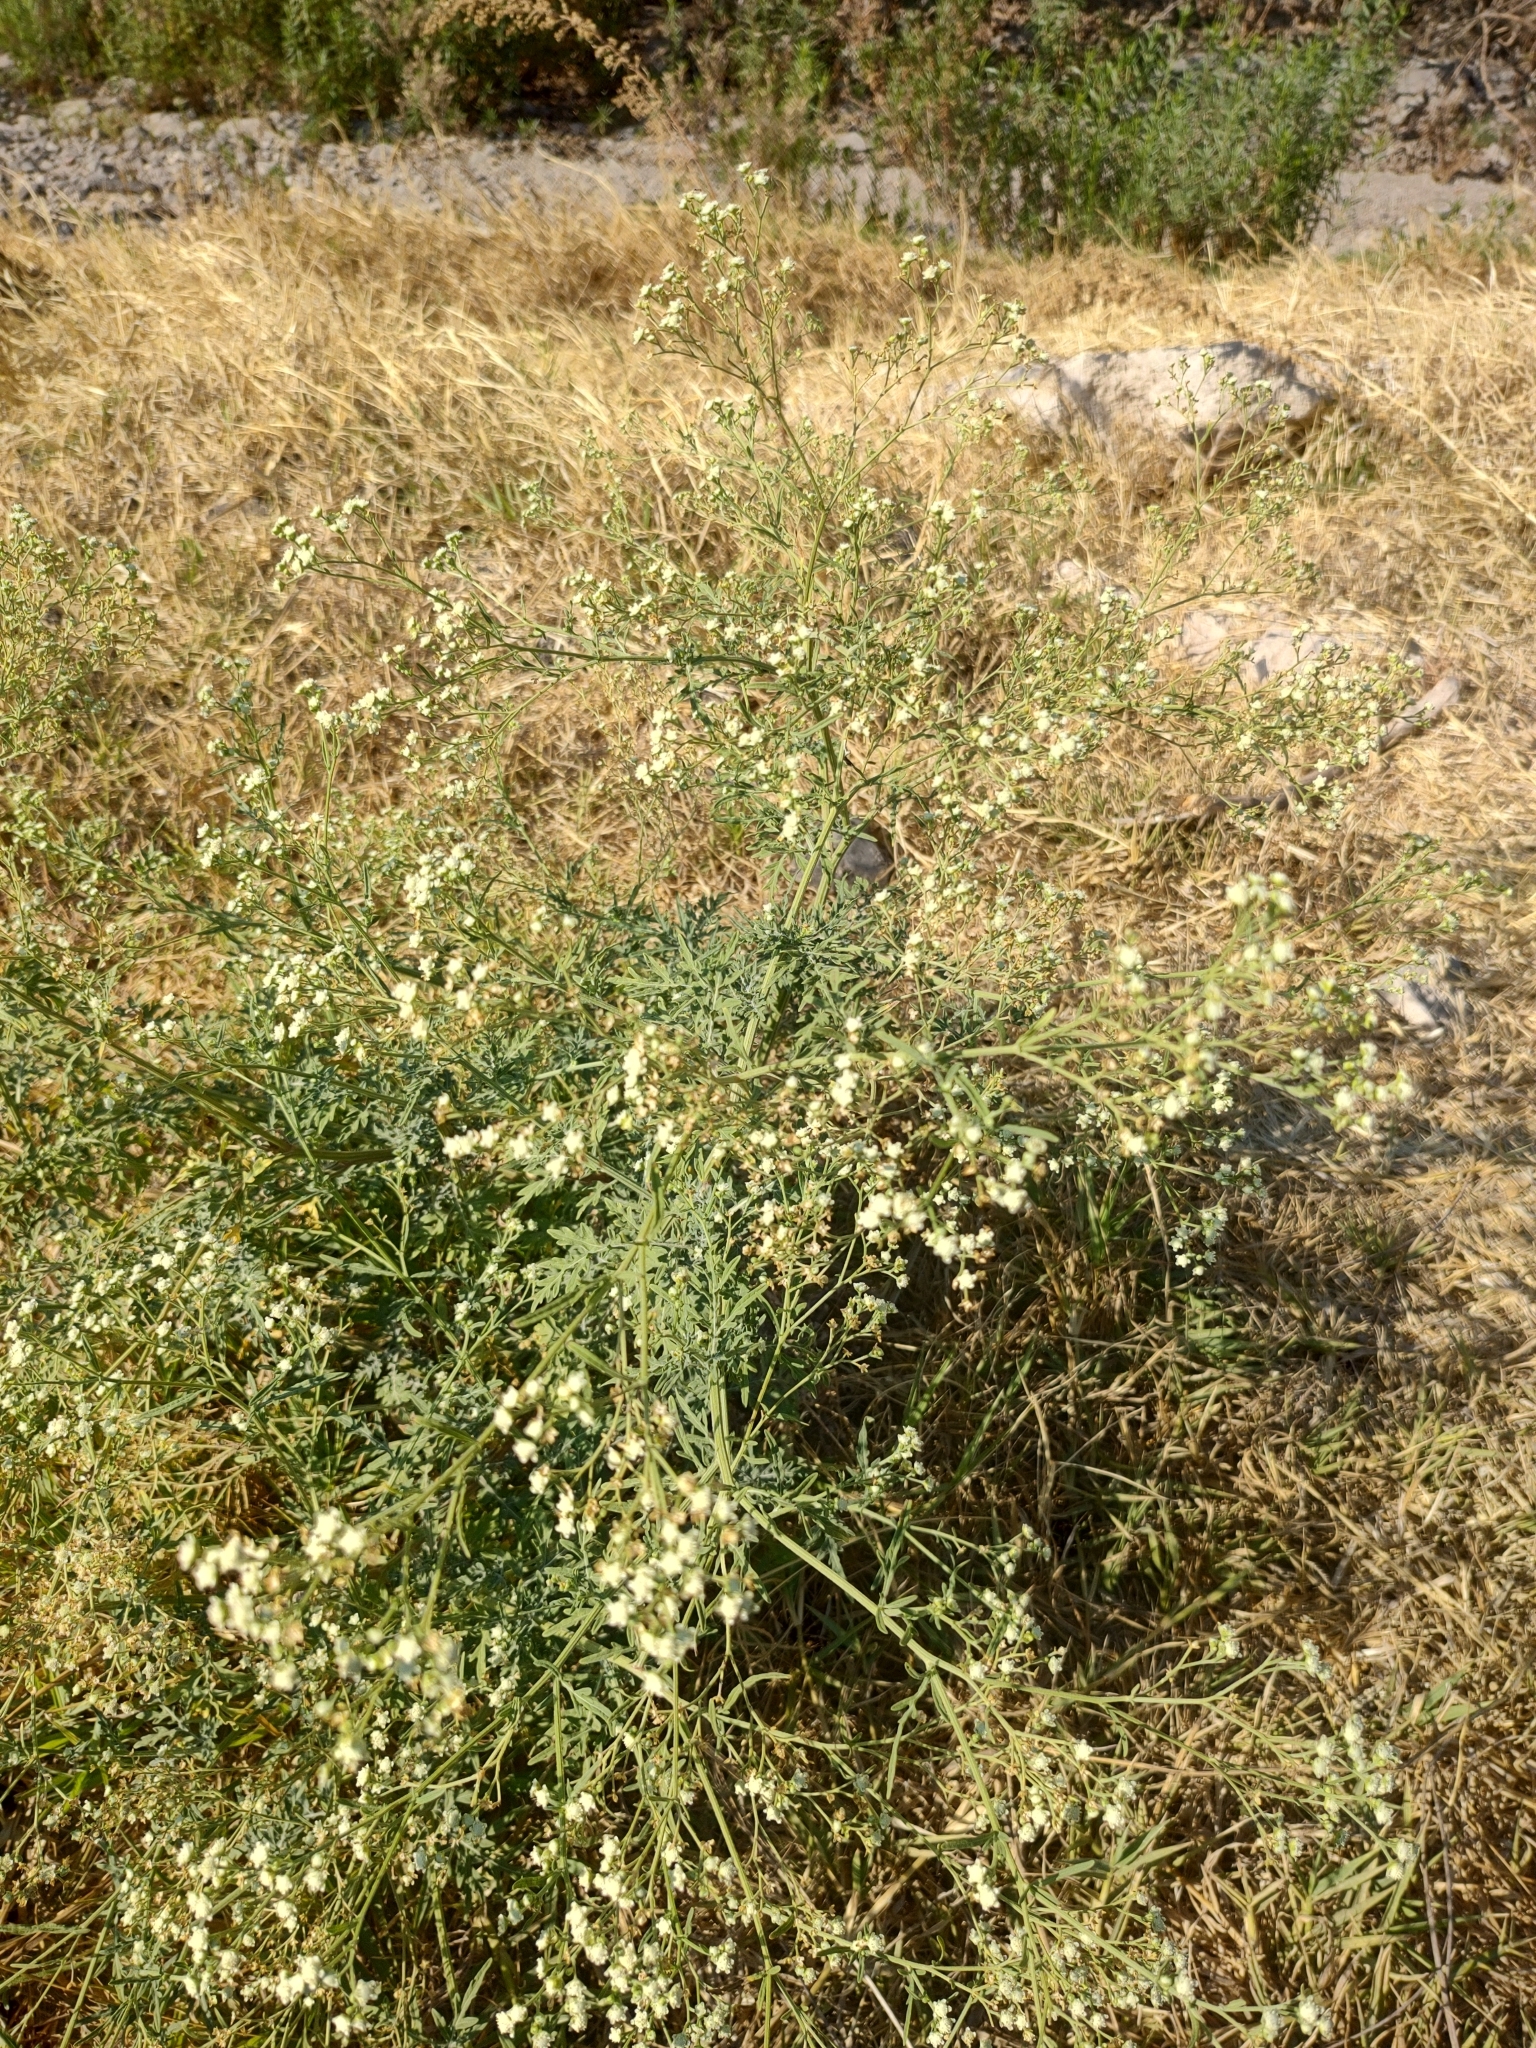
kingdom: Plantae
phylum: Tracheophyta
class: Magnoliopsida
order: Asterales
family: Asteraceae
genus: Parthenium
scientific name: Parthenium hysterophorus
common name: Santa maria feverfew
